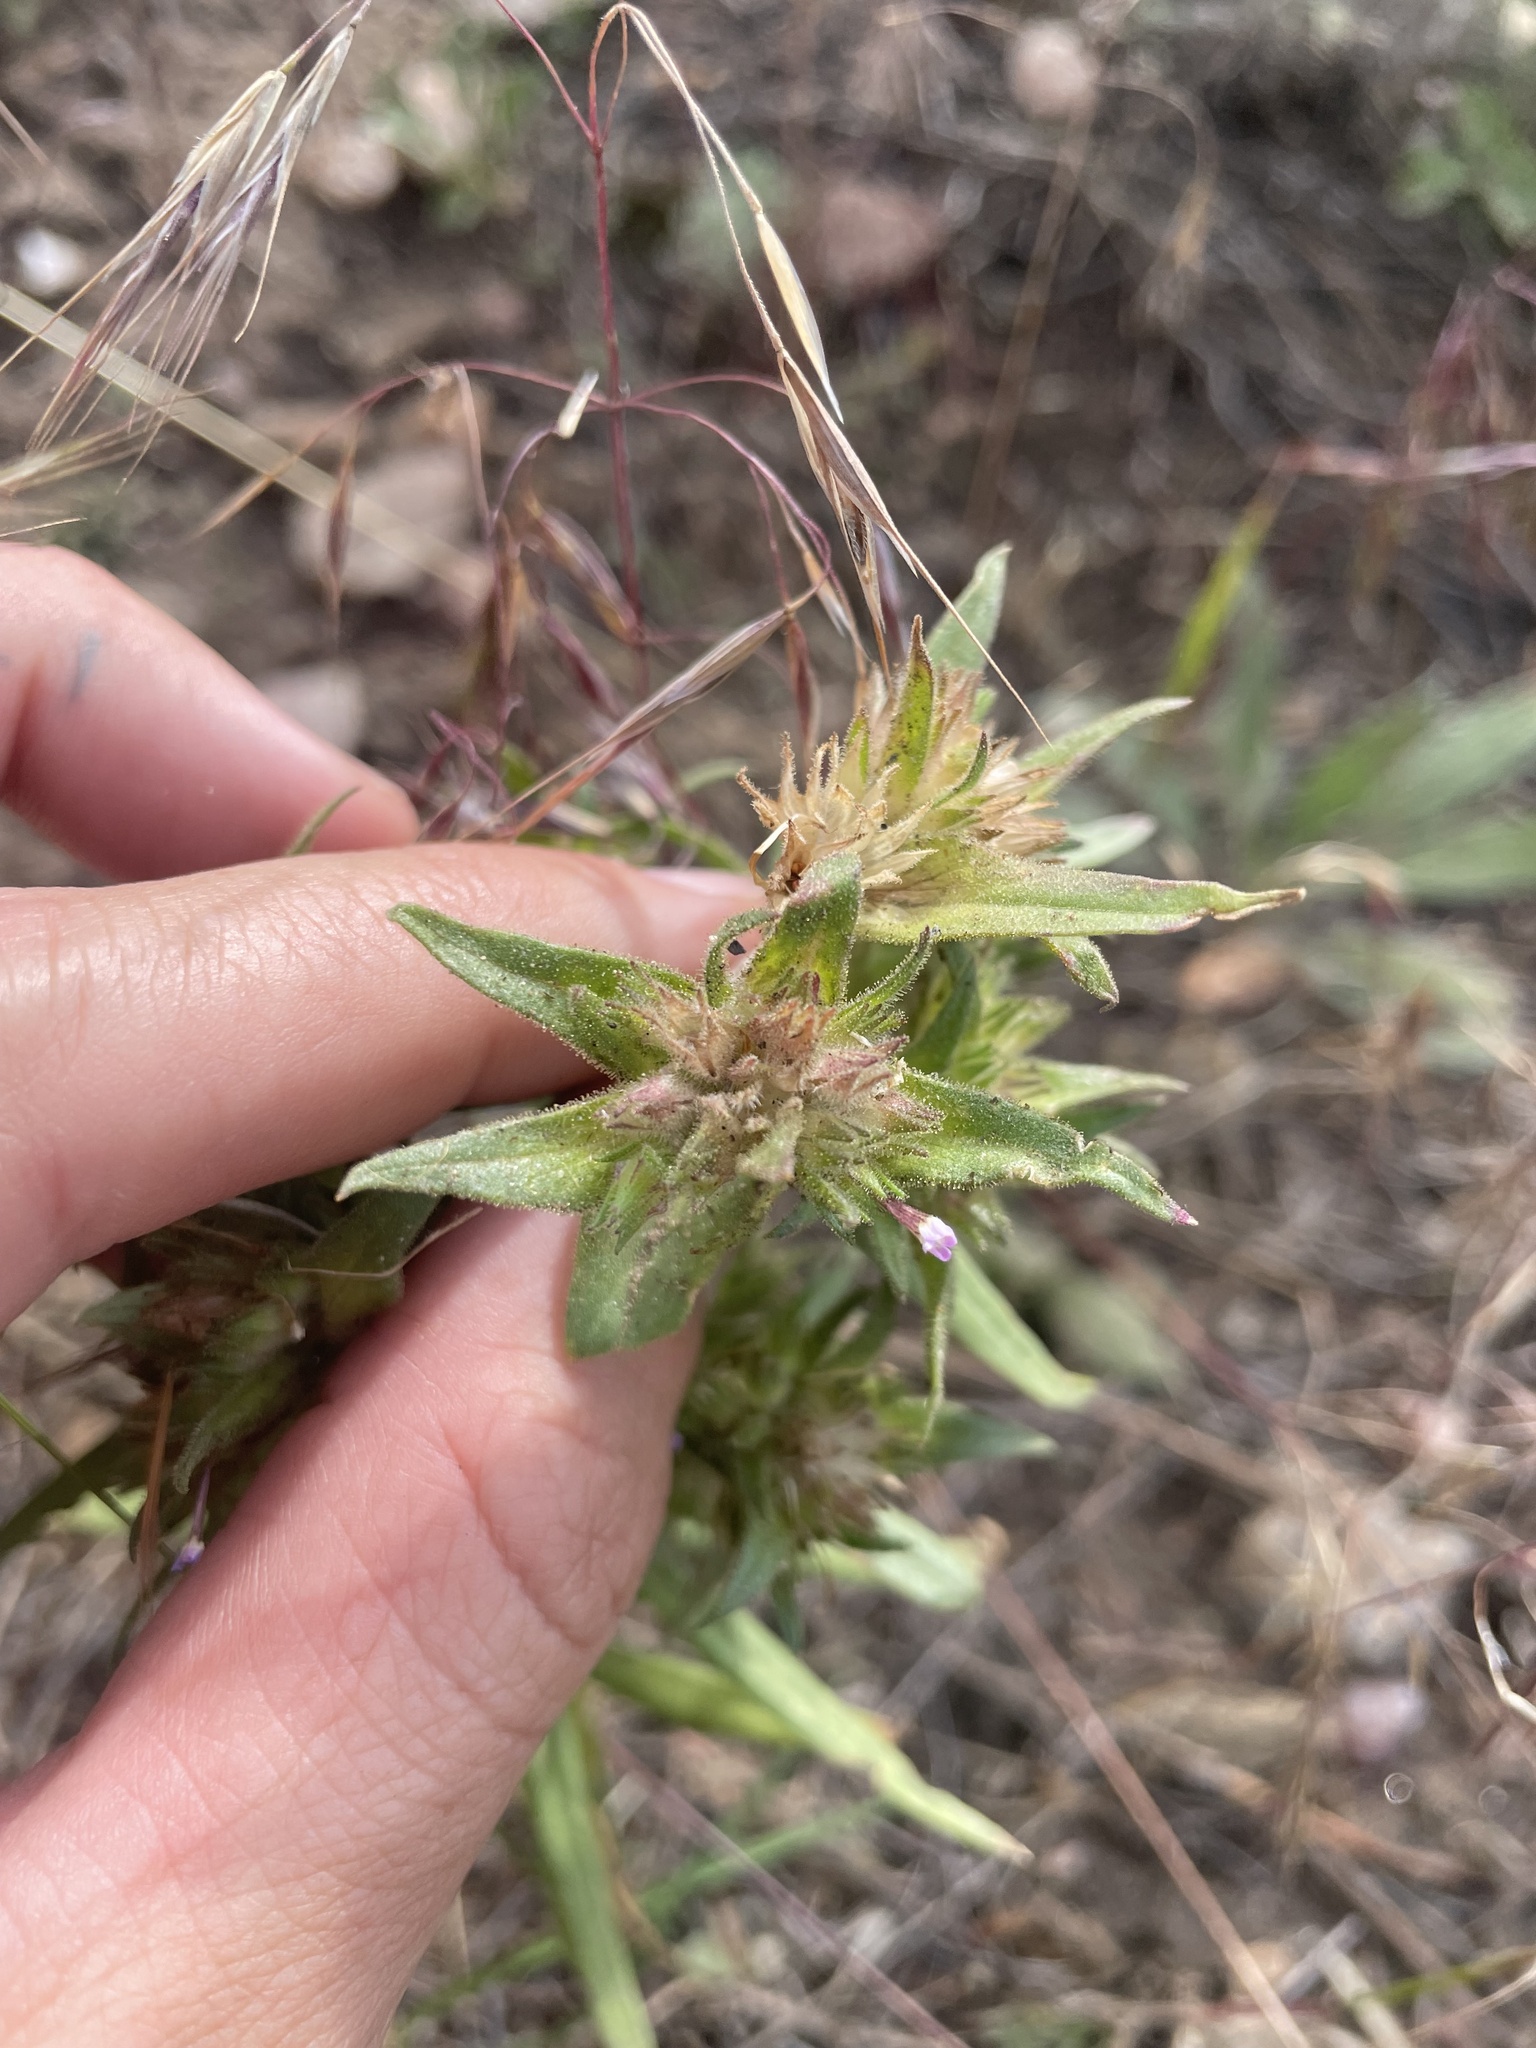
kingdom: Plantae
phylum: Tracheophyta
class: Magnoliopsida
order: Ericales
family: Polemoniaceae
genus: Collomia
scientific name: Collomia linearis
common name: Tiny trumpet
